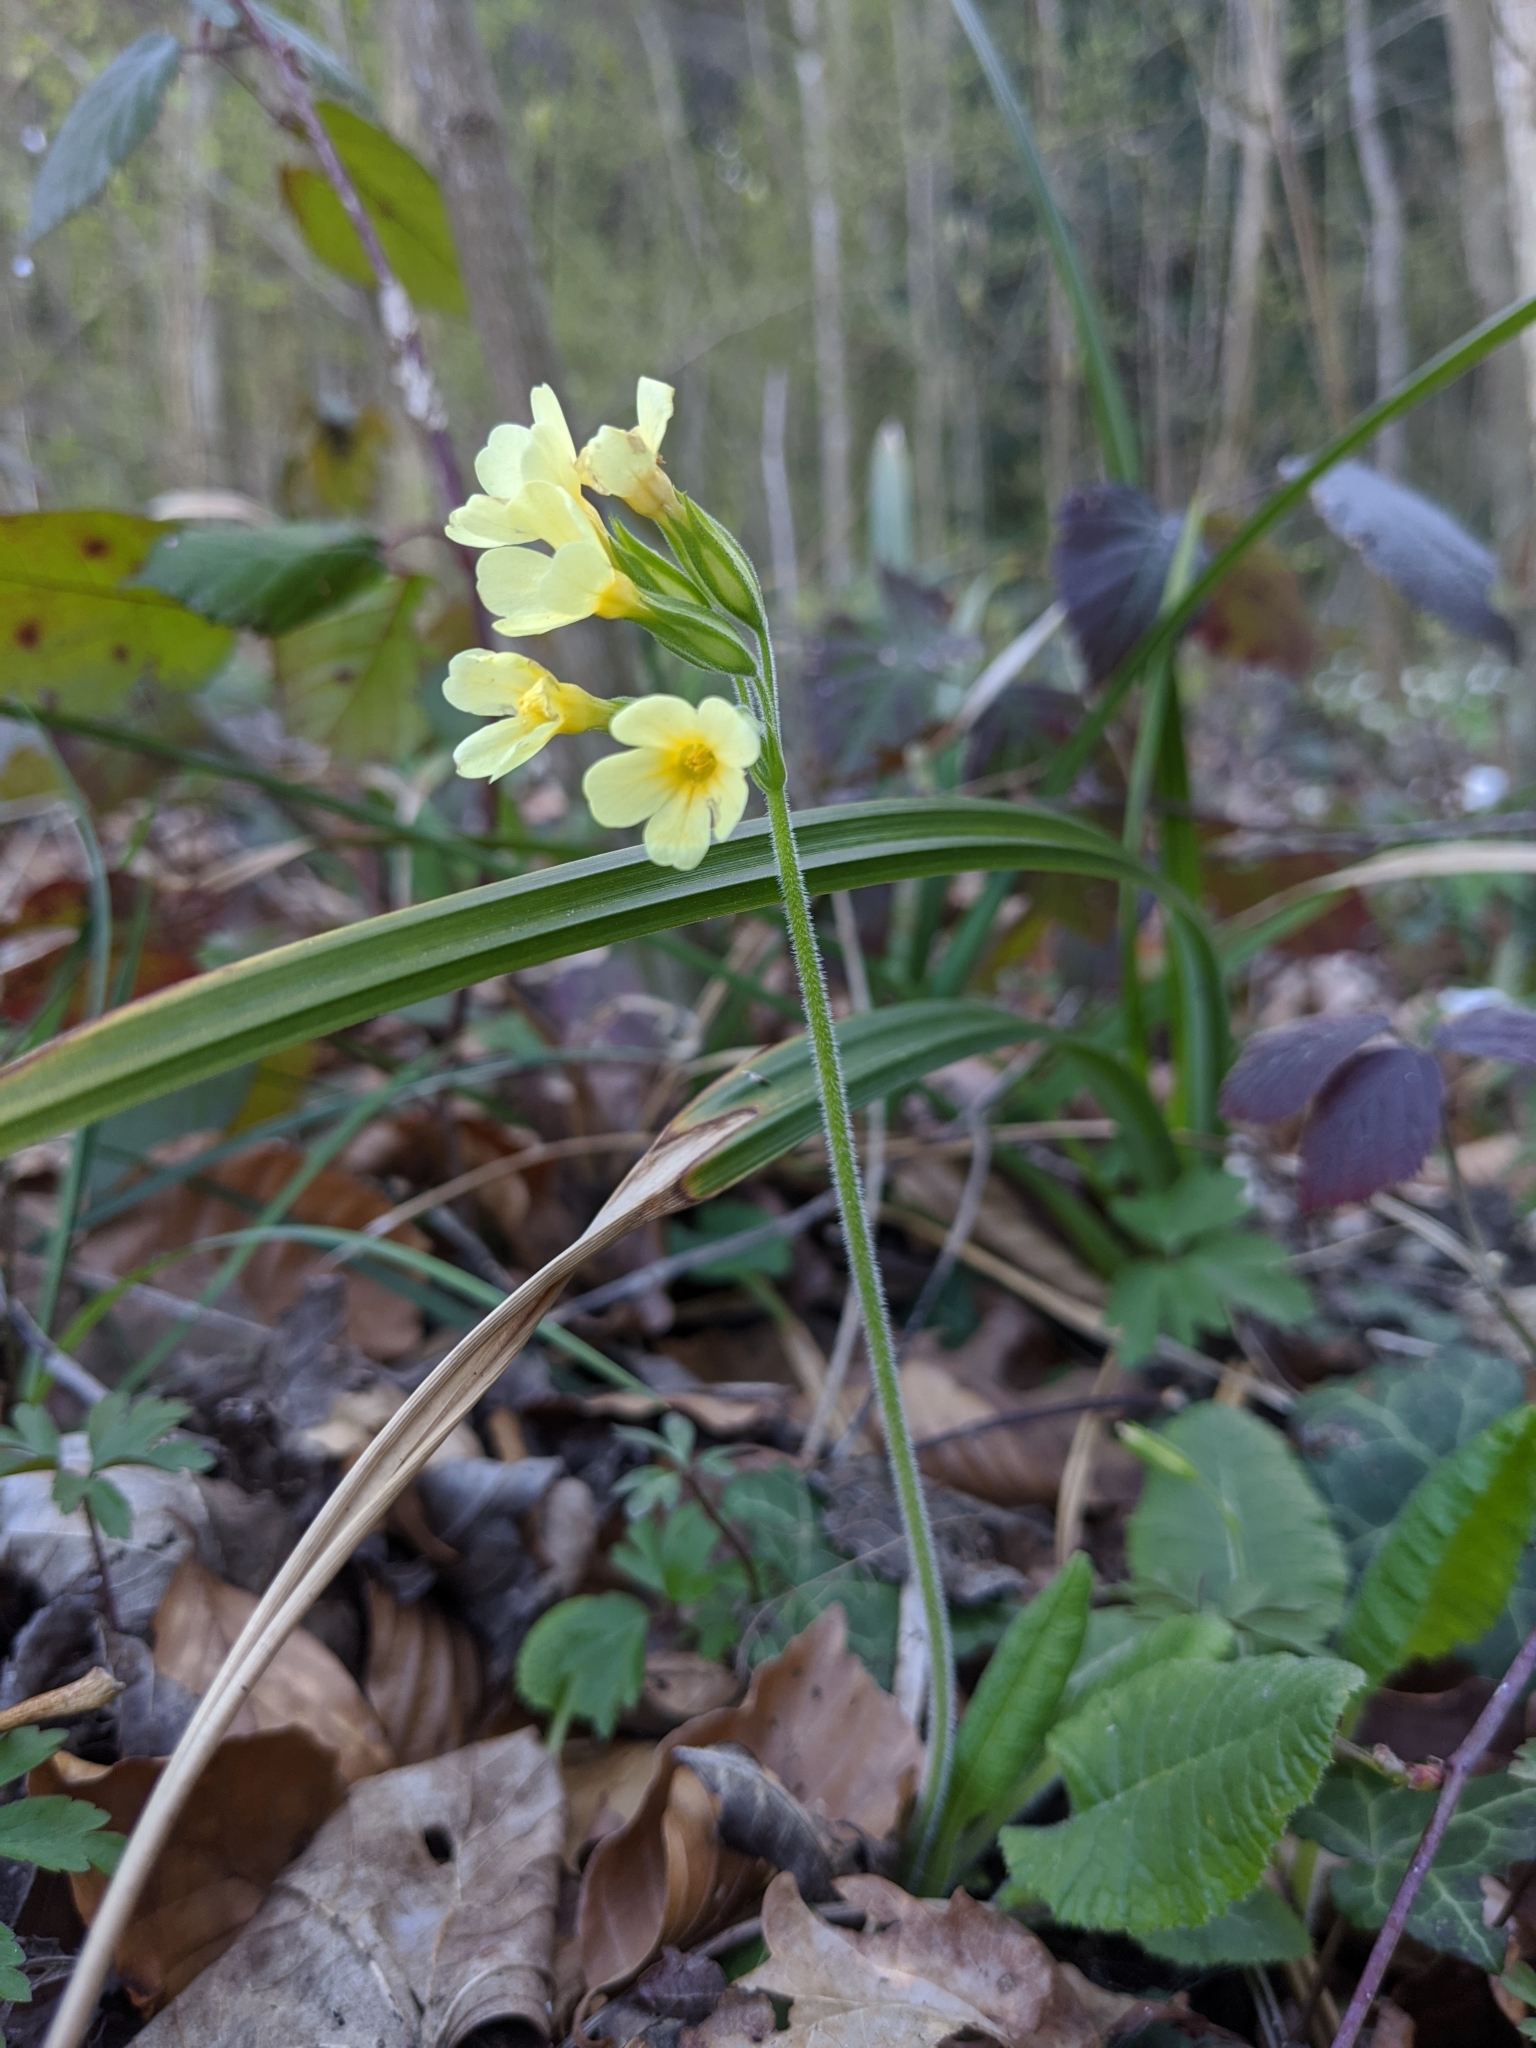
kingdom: Plantae
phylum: Tracheophyta
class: Magnoliopsida
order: Ericales
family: Primulaceae
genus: Primula
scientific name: Primula elatior
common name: Oxlip
